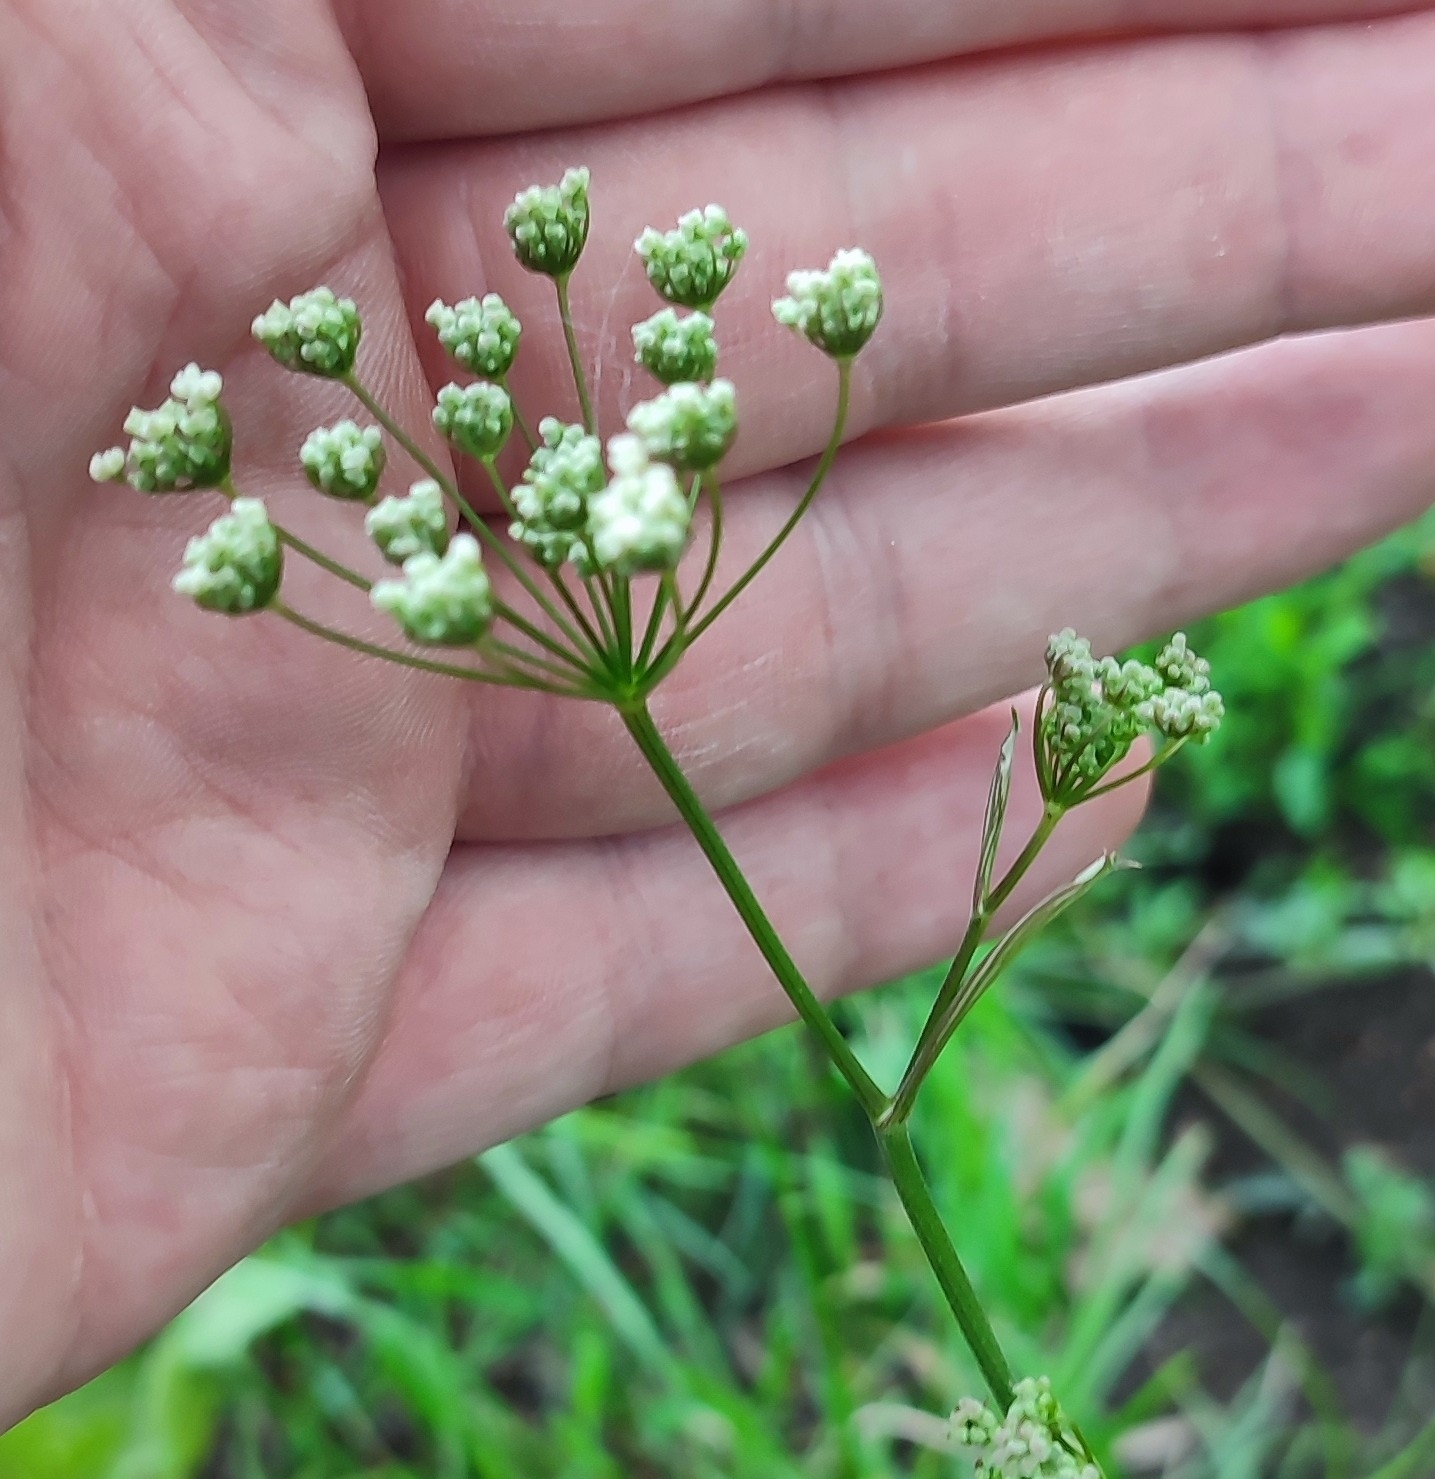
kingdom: Plantae
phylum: Tracheophyta
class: Magnoliopsida
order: Apiales
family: Apiaceae
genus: Pimpinella
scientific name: Pimpinella saxifraga
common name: Burnet-saxifrage
